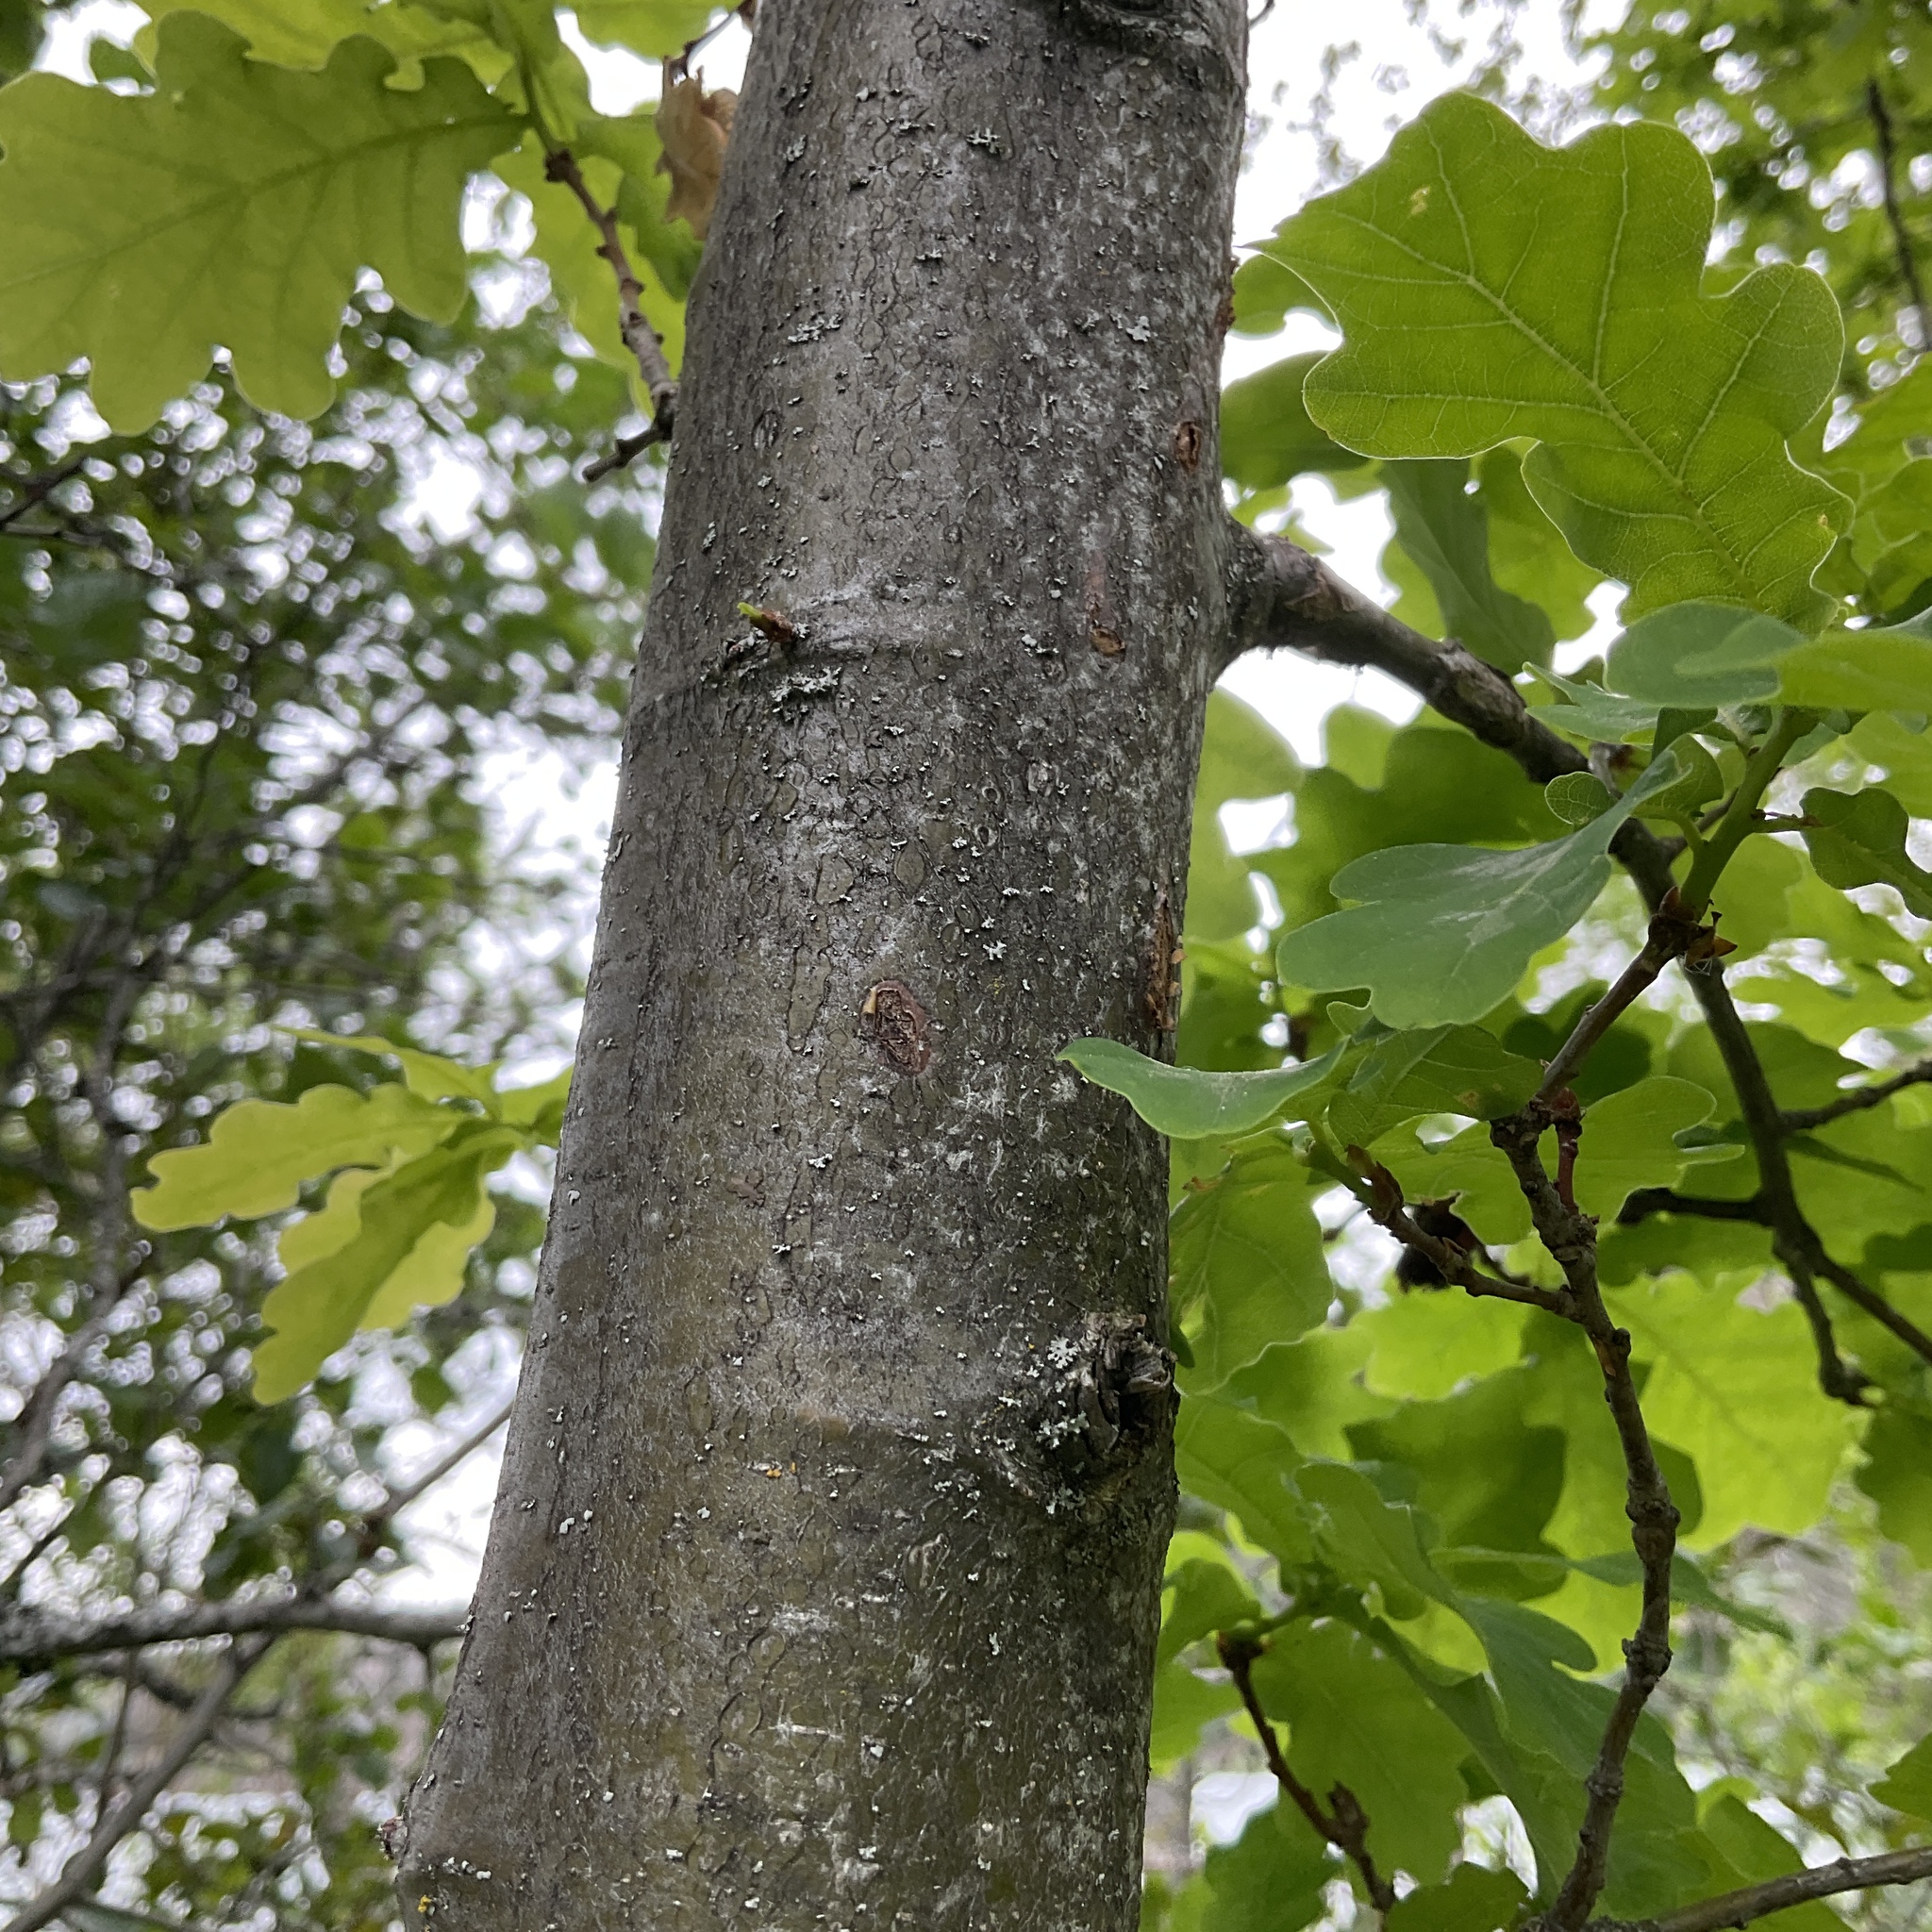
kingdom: Plantae
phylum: Tracheophyta
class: Magnoliopsida
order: Fagales
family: Fagaceae
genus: Quercus
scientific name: Quercus robur
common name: Pedunculate oak
